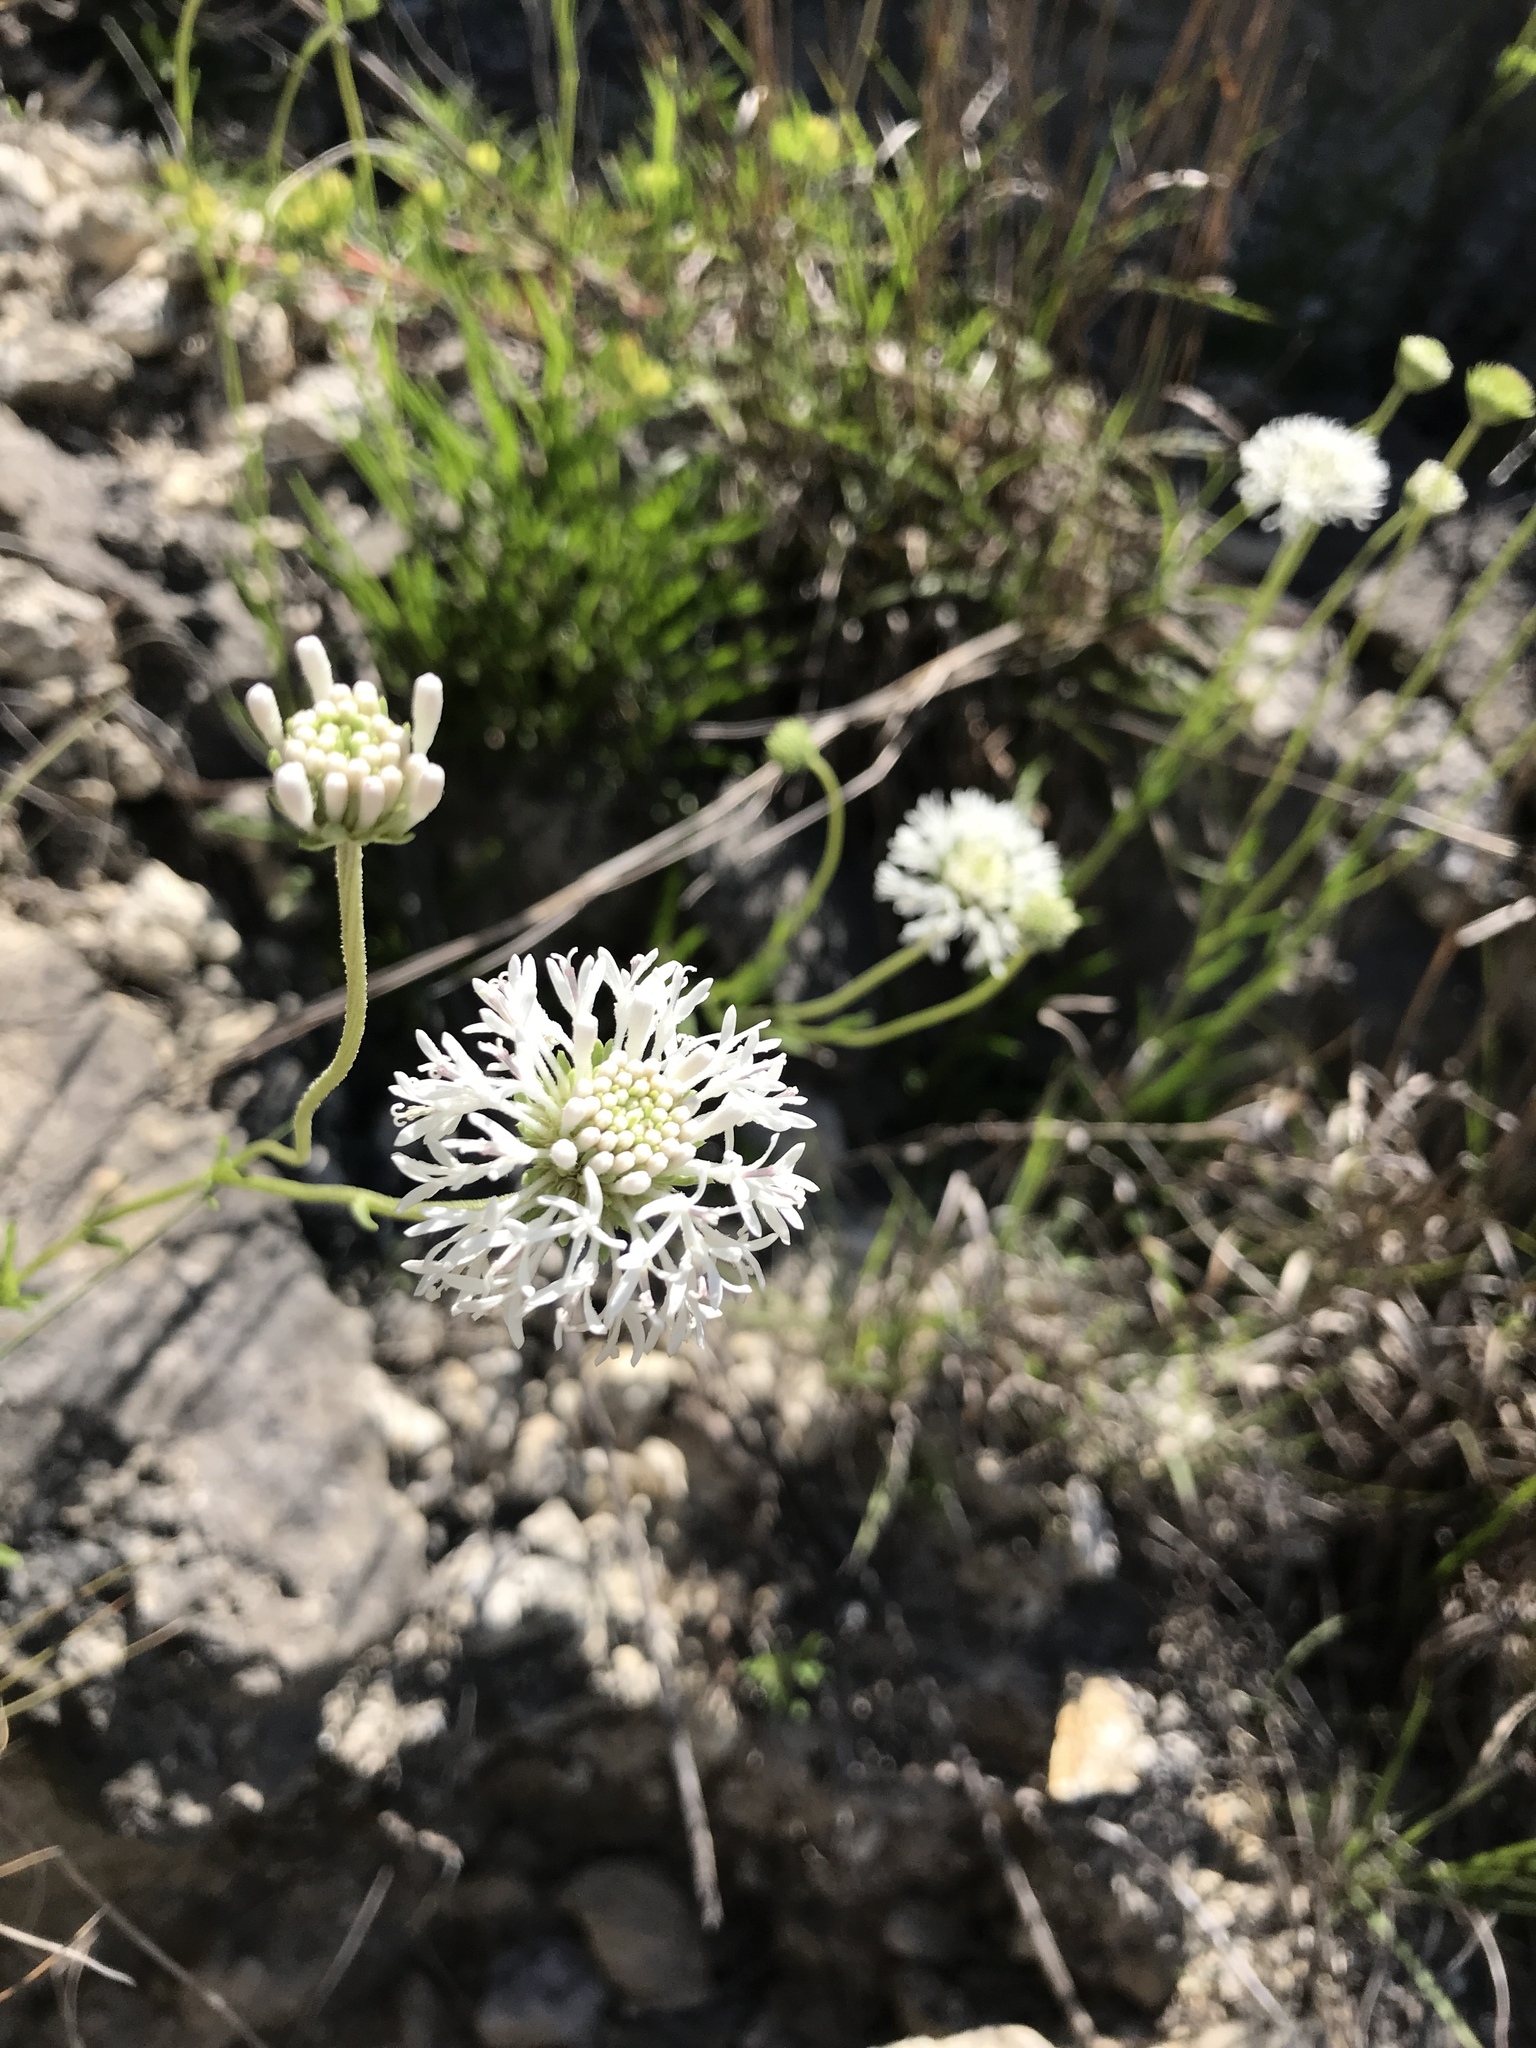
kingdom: Plantae
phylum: Tracheophyta
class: Magnoliopsida
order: Asterales
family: Asteraceae
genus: Marshallia
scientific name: Marshallia caespitosa
